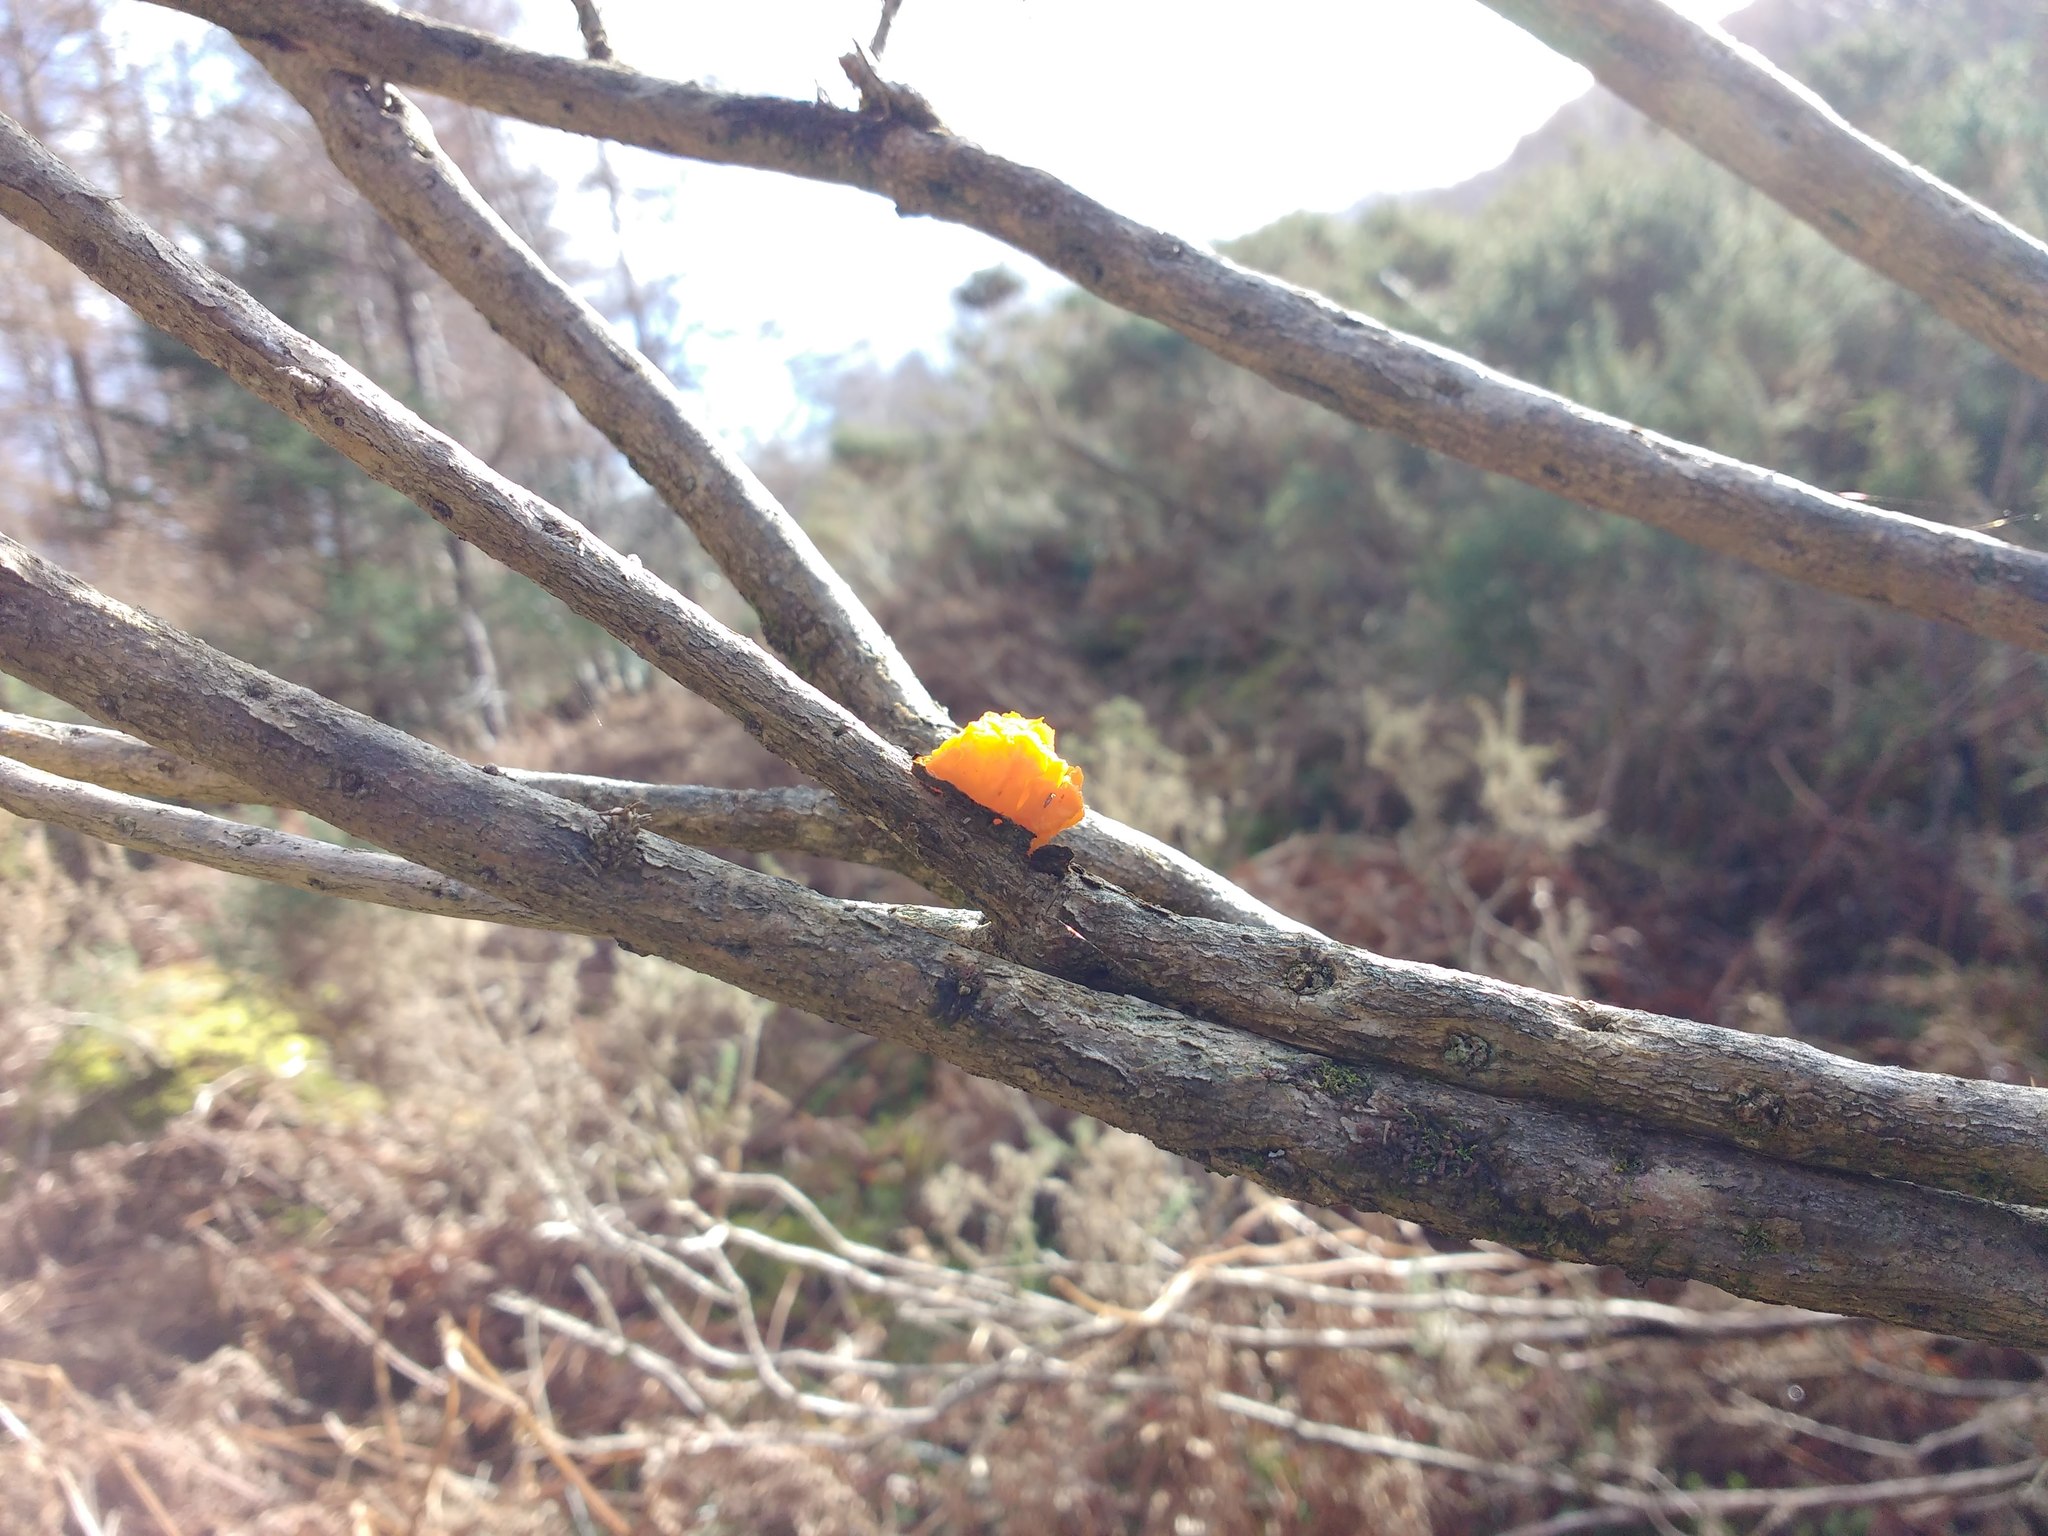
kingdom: Fungi
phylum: Basidiomycota
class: Tremellomycetes
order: Tremellales
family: Tremellaceae
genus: Tremella
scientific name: Tremella mesenterica
